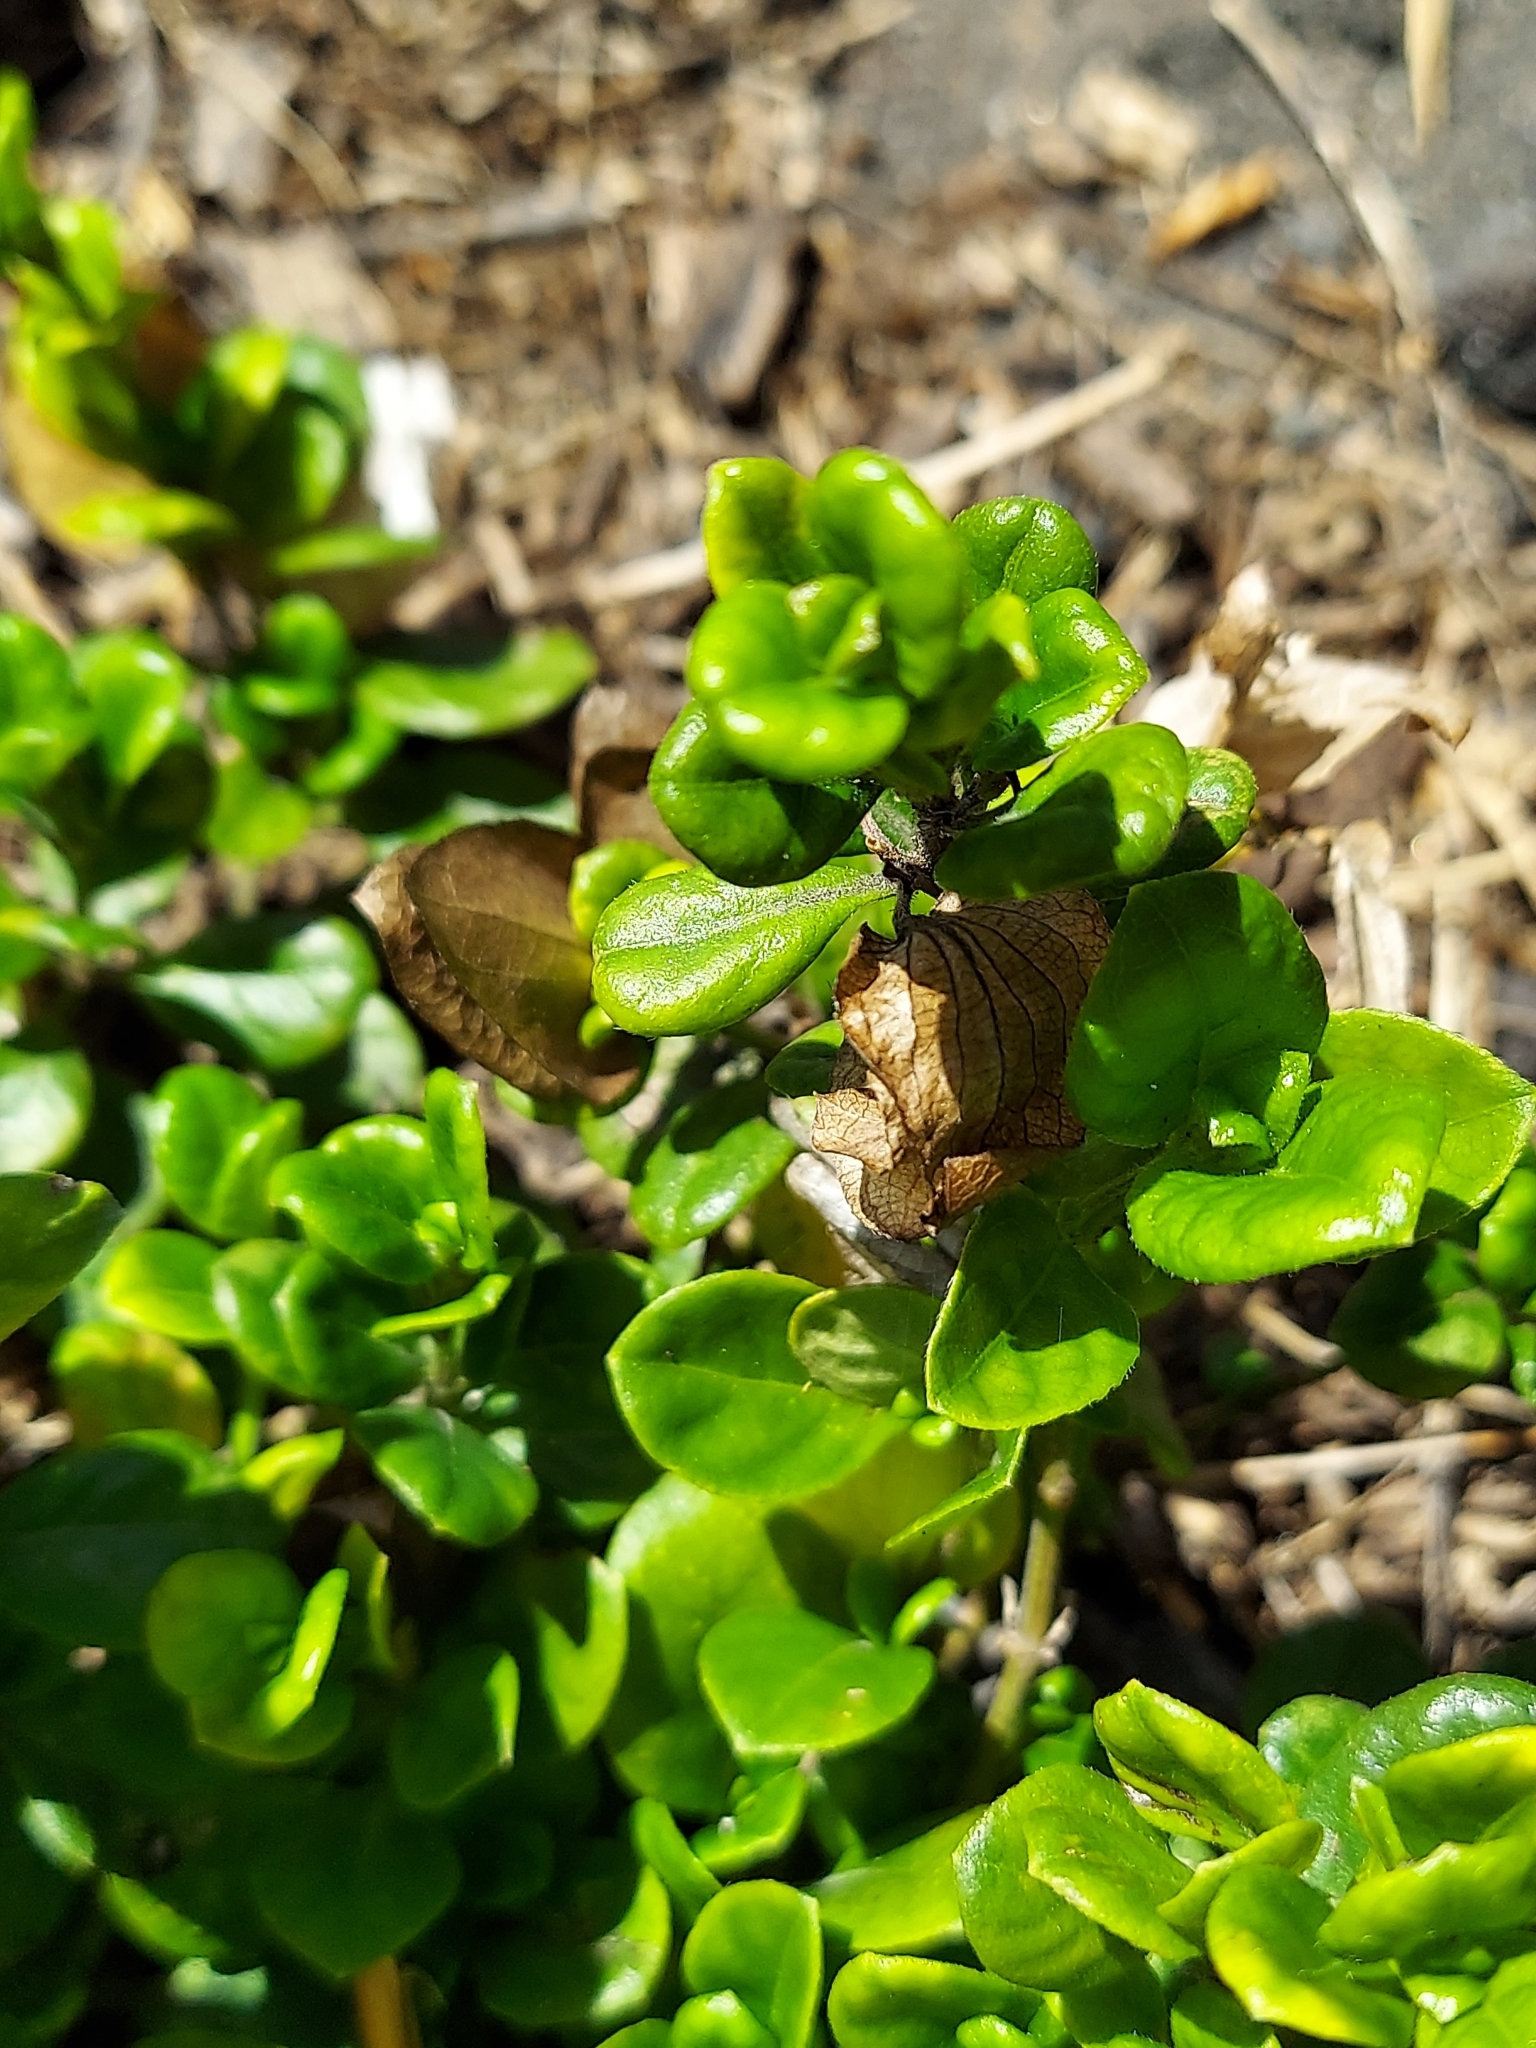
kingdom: Plantae
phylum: Tracheophyta
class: Magnoliopsida
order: Lamiales
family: Acanthaceae
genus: Barleria
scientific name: Barleria repens
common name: Pink-ruellia
